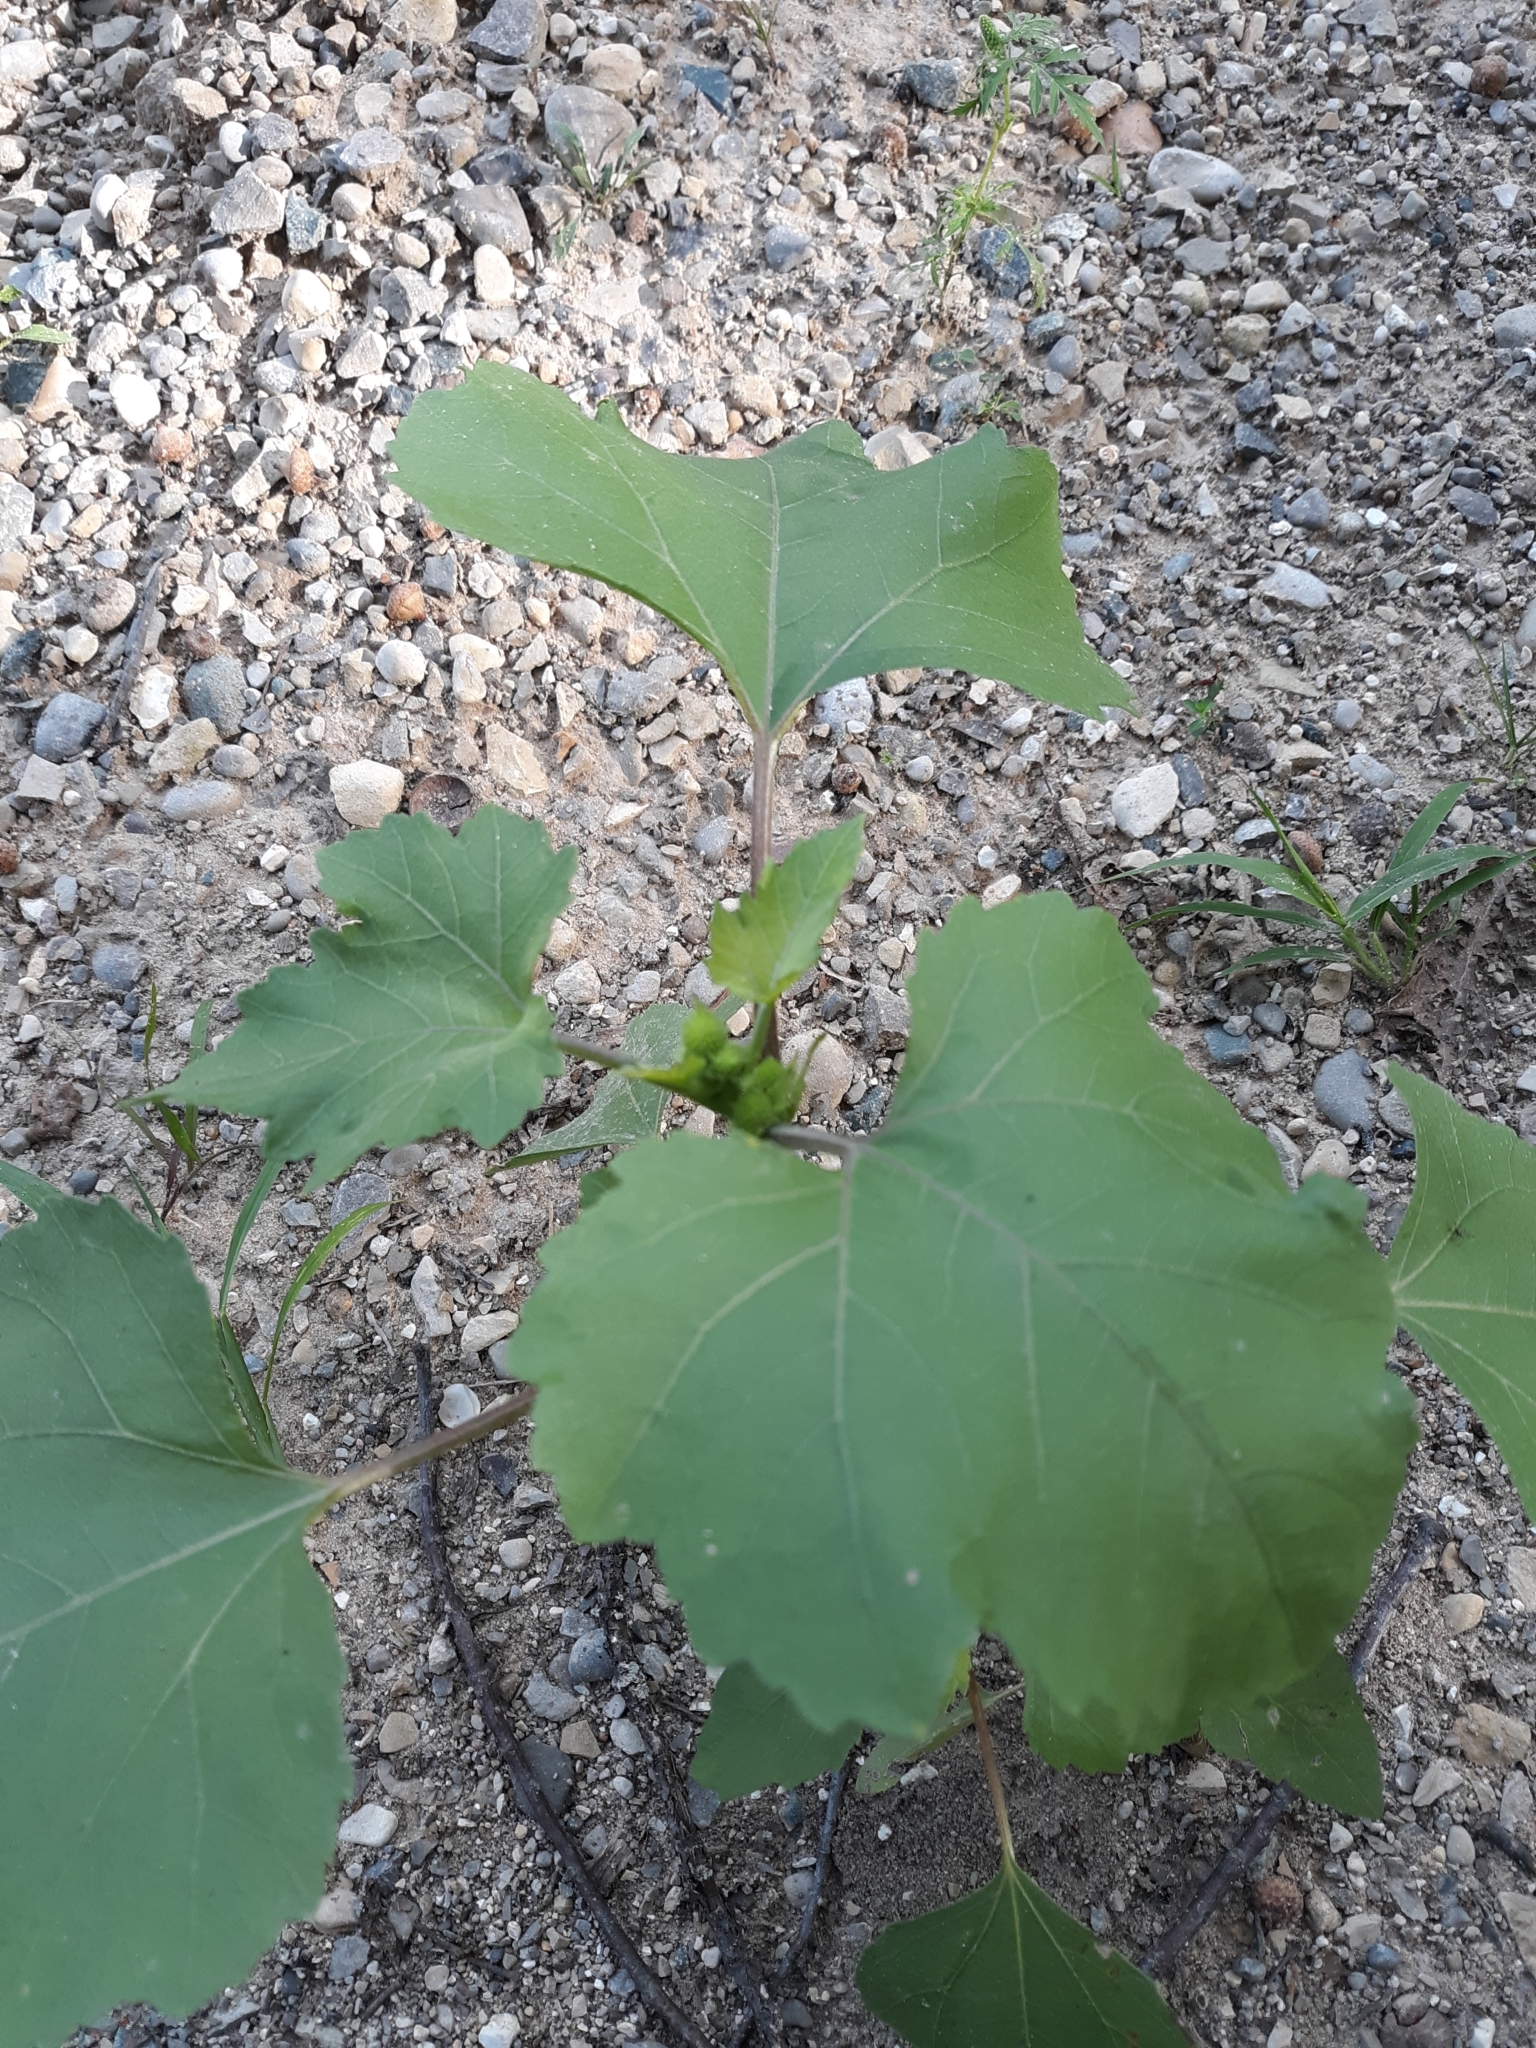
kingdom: Plantae
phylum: Tracheophyta
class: Magnoliopsida
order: Asterales
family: Asteraceae
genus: Xanthium
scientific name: Xanthium strumarium
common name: Rough cocklebur
